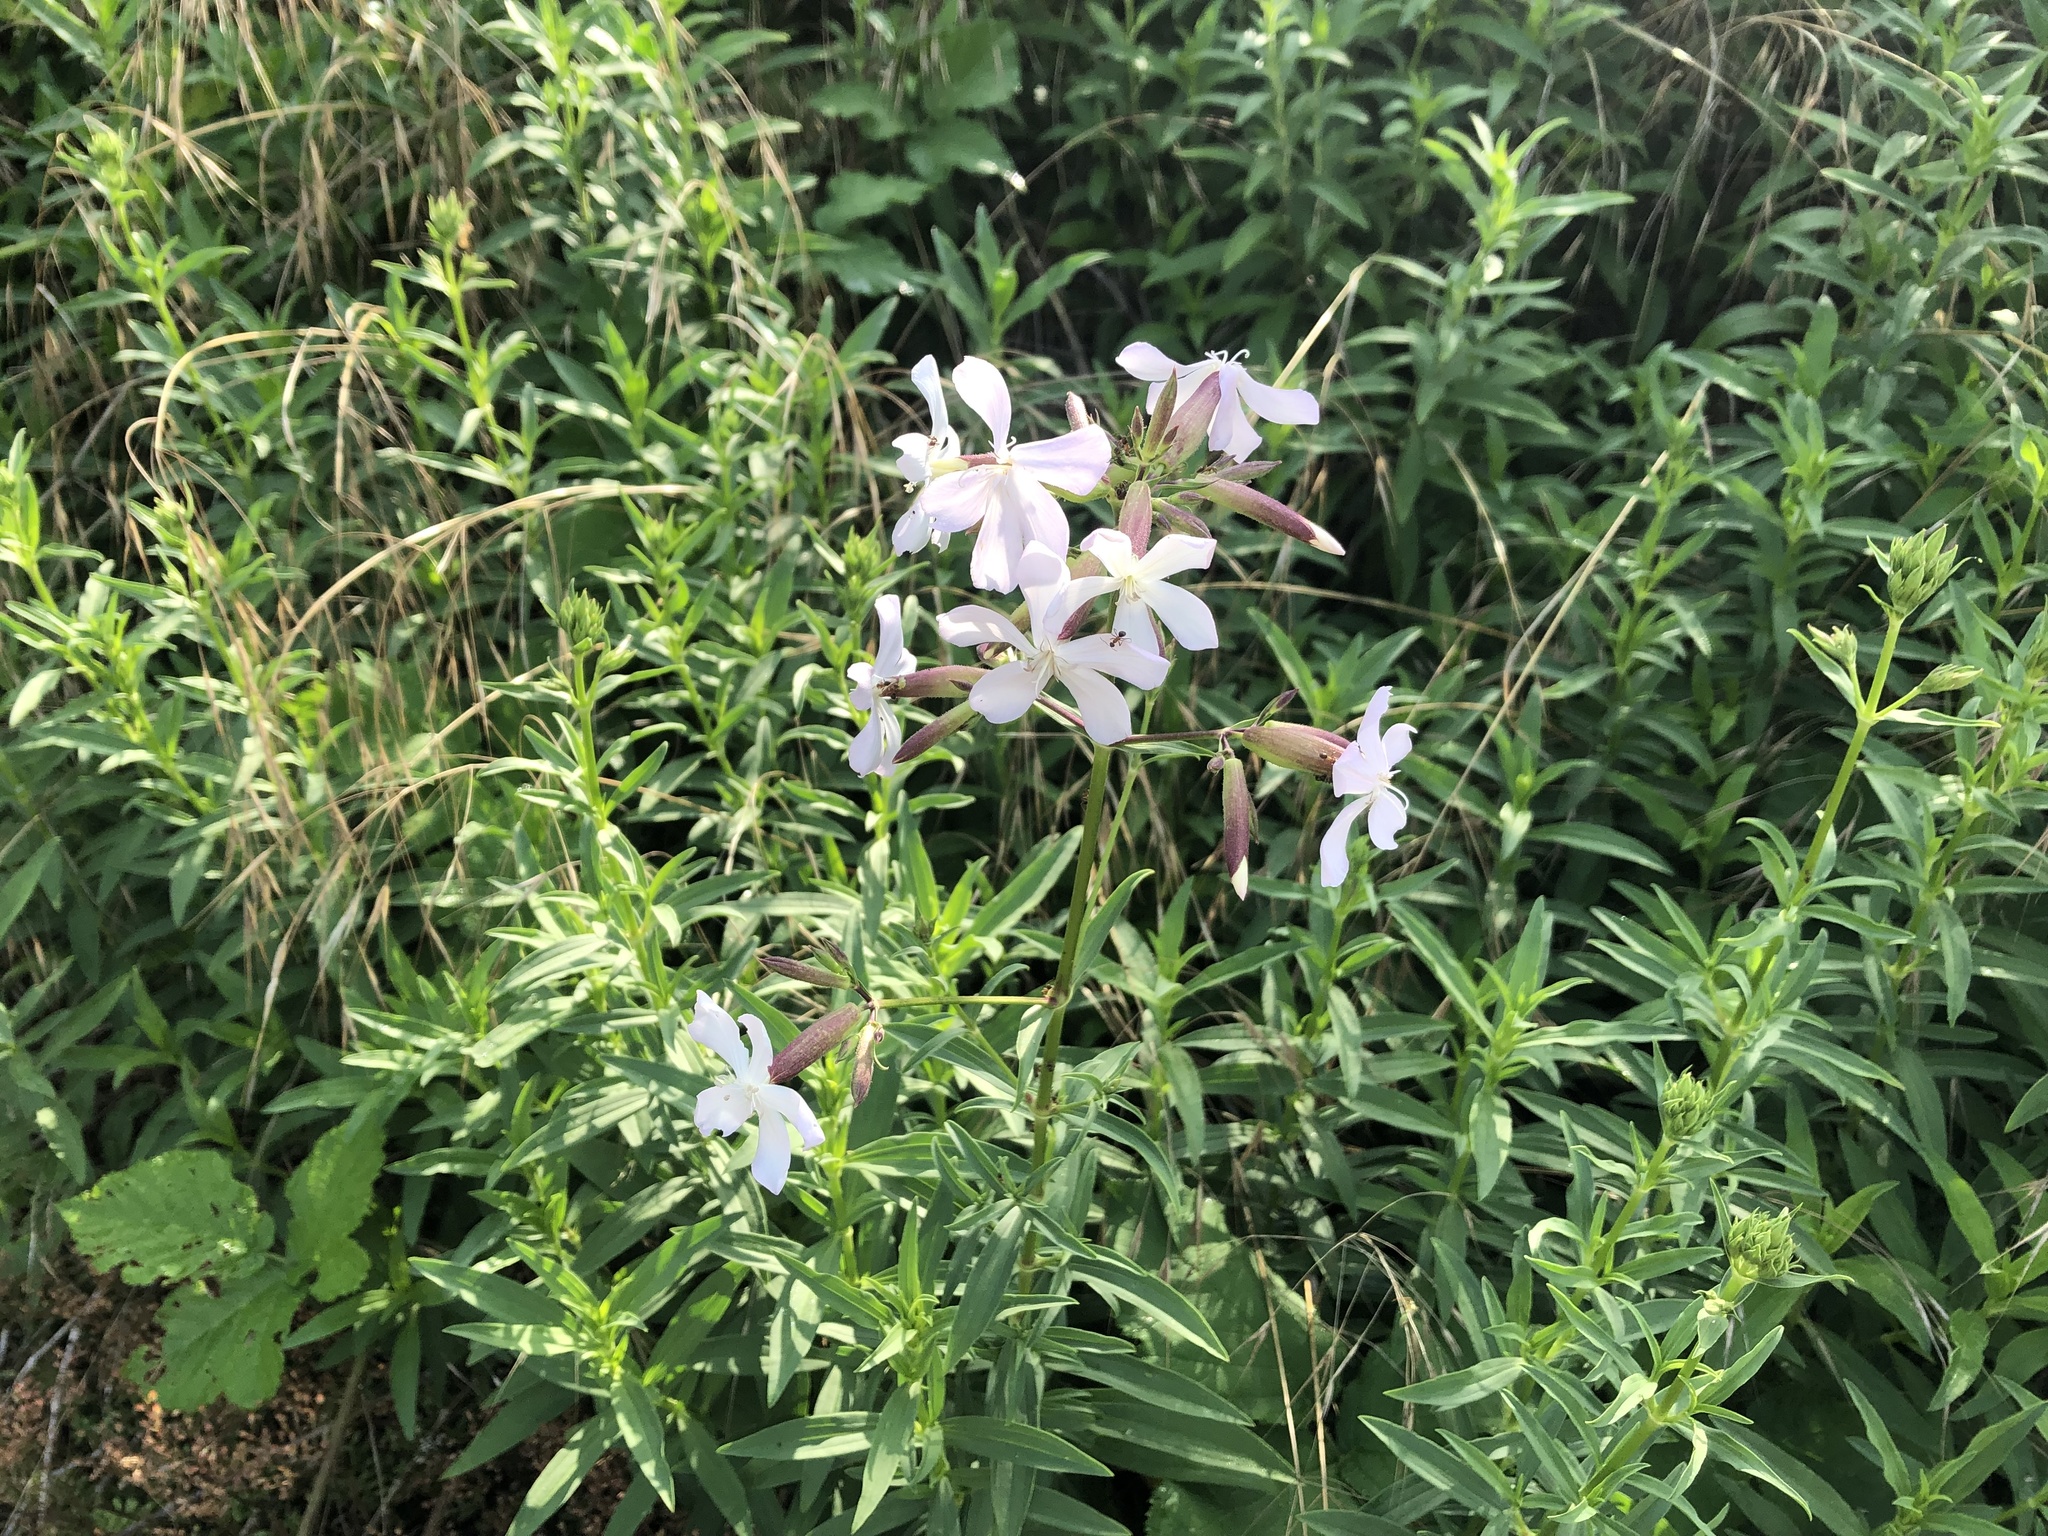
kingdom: Plantae
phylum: Tracheophyta
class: Magnoliopsida
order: Caryophyllales
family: Caryophyllaceae
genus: Saponaria
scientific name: Saponaria officinalis
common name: Soapwort
